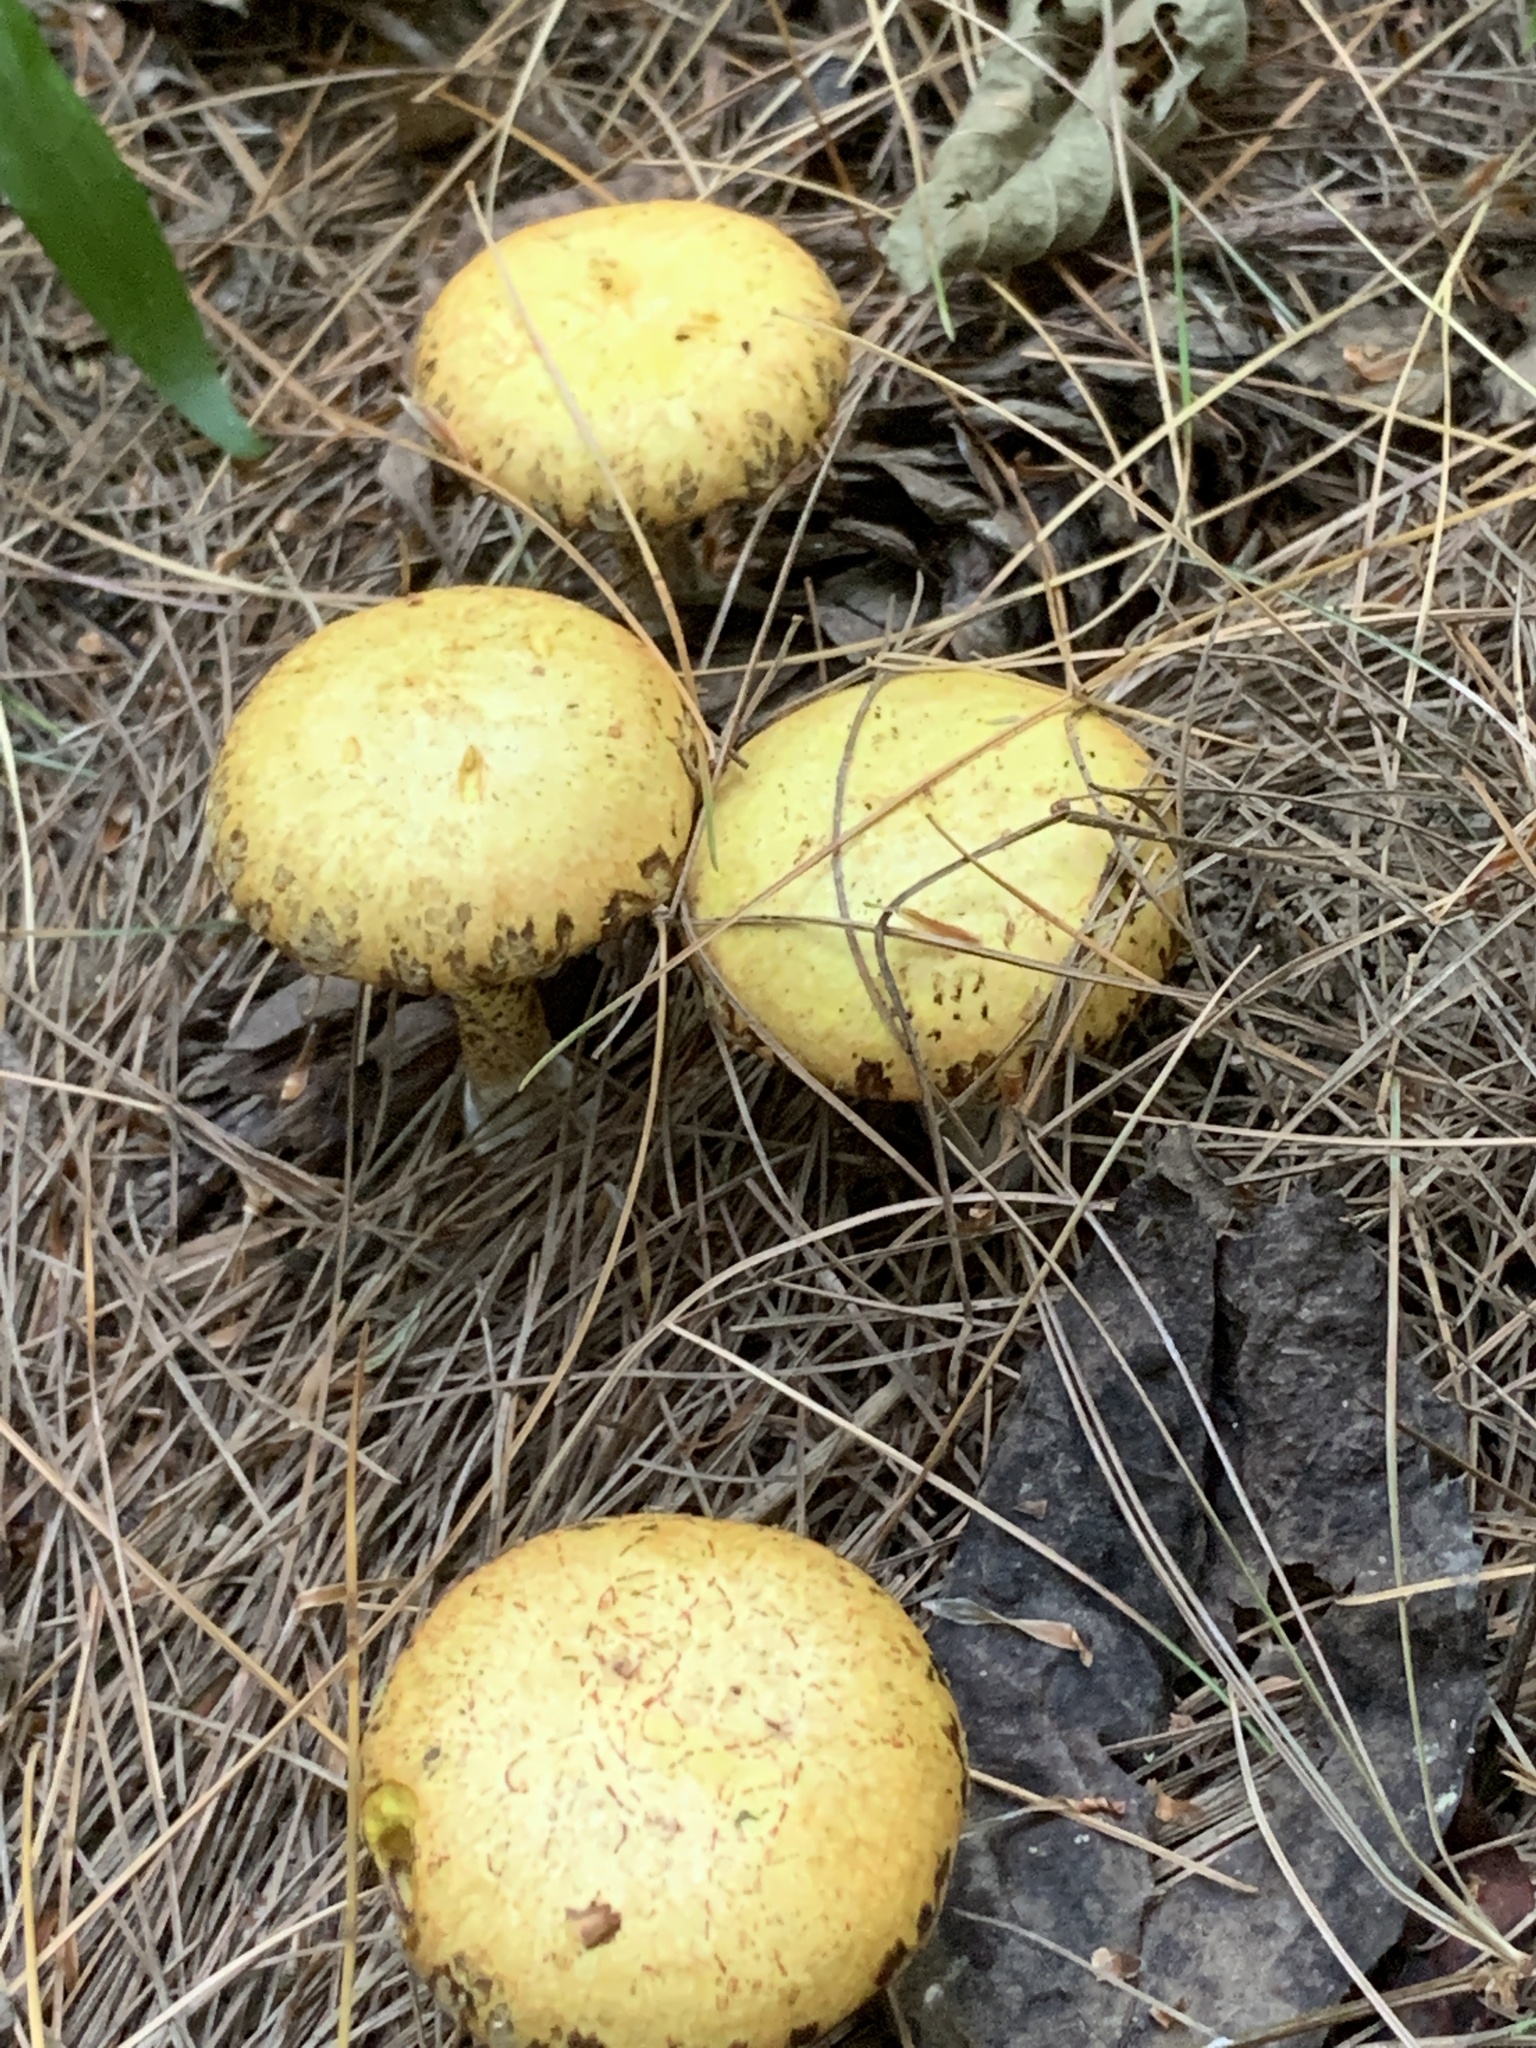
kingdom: Fungi
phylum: Basidiomycota
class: Agaricomycetes
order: Boletales
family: Suillaceae
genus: Suillus
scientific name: Suillus americanus
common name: Chicken fat mushroom
